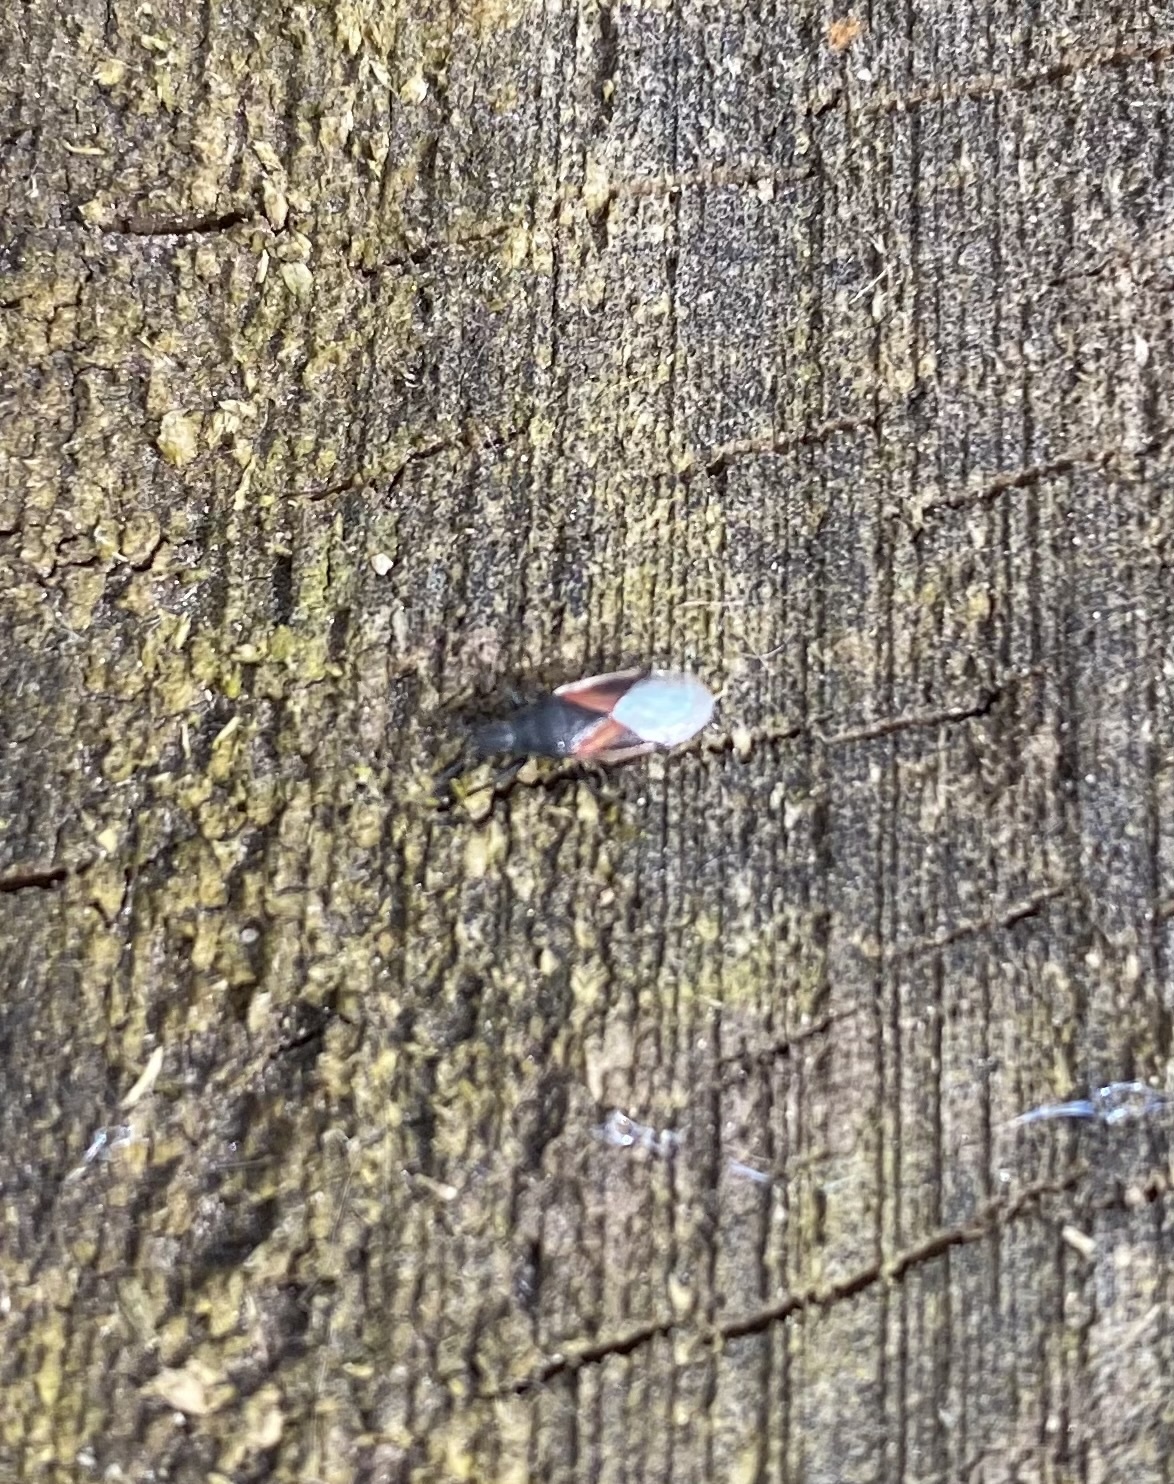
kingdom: Animalia
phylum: Arthropoda
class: Insecta
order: Hemiptera
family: Oxycarenidae
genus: Oxycarenus
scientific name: Oxycarenus lavaterae
